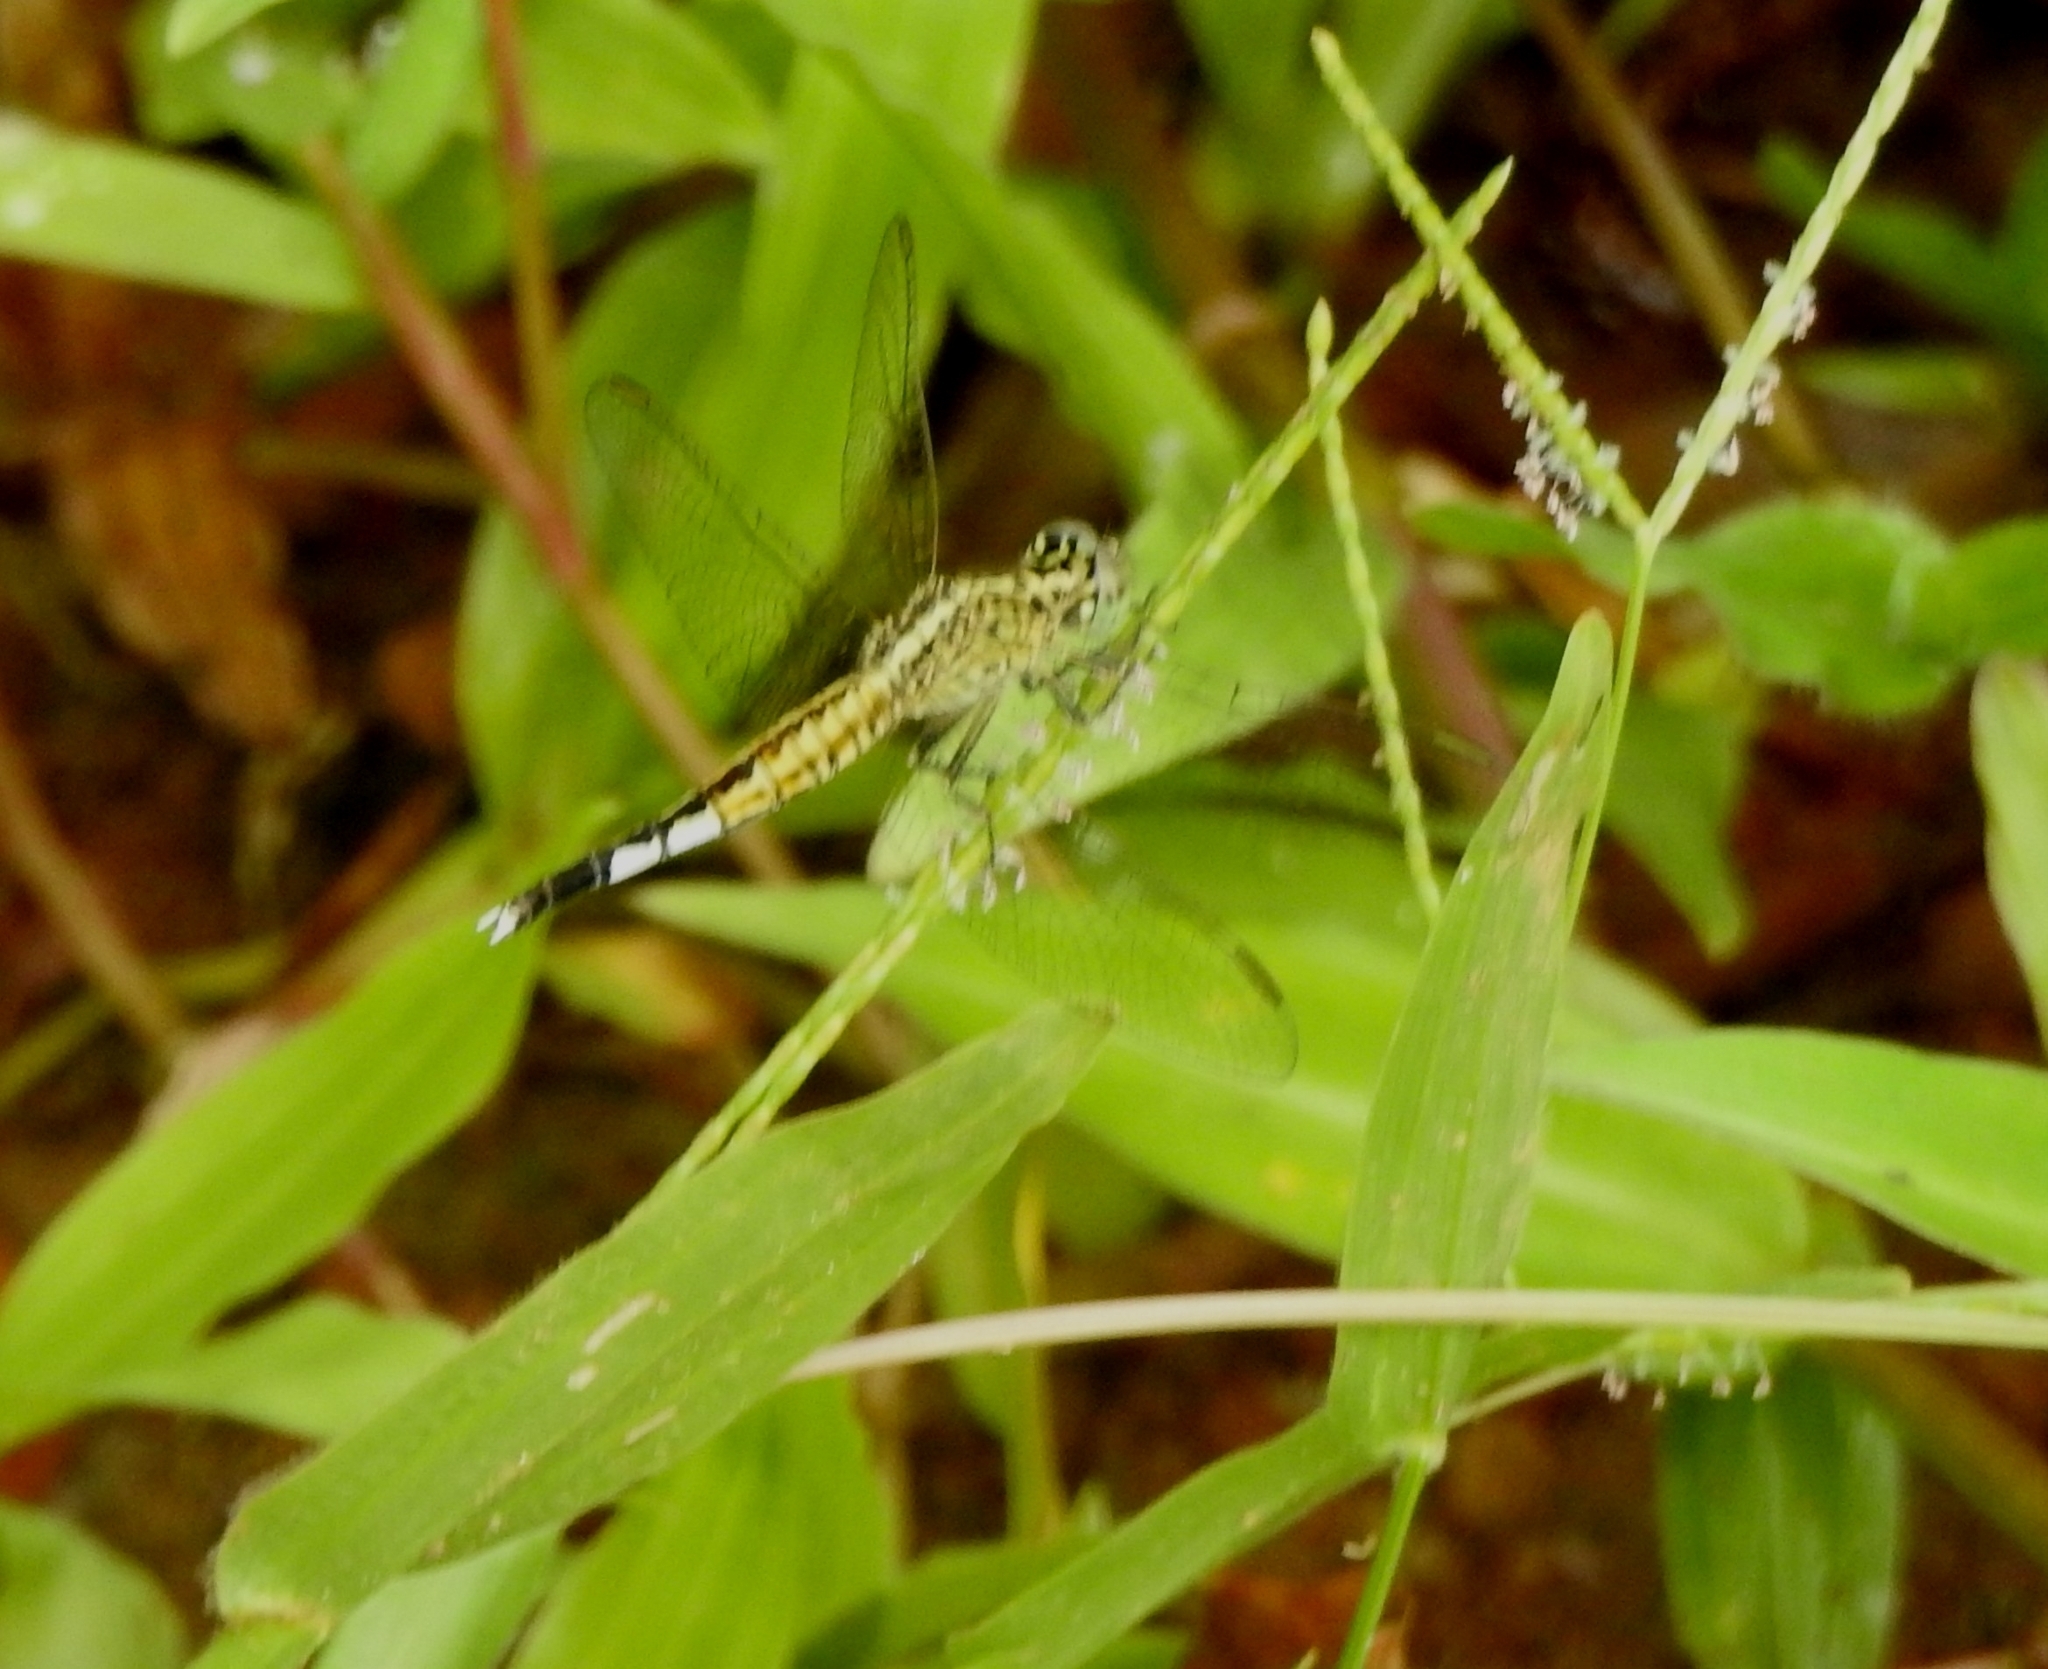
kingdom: Animalia
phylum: Arthropoda
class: Insecta
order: Odonata
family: Libellulidae
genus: Acisoma
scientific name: Acisoma panorpoides
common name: Asian pintail
